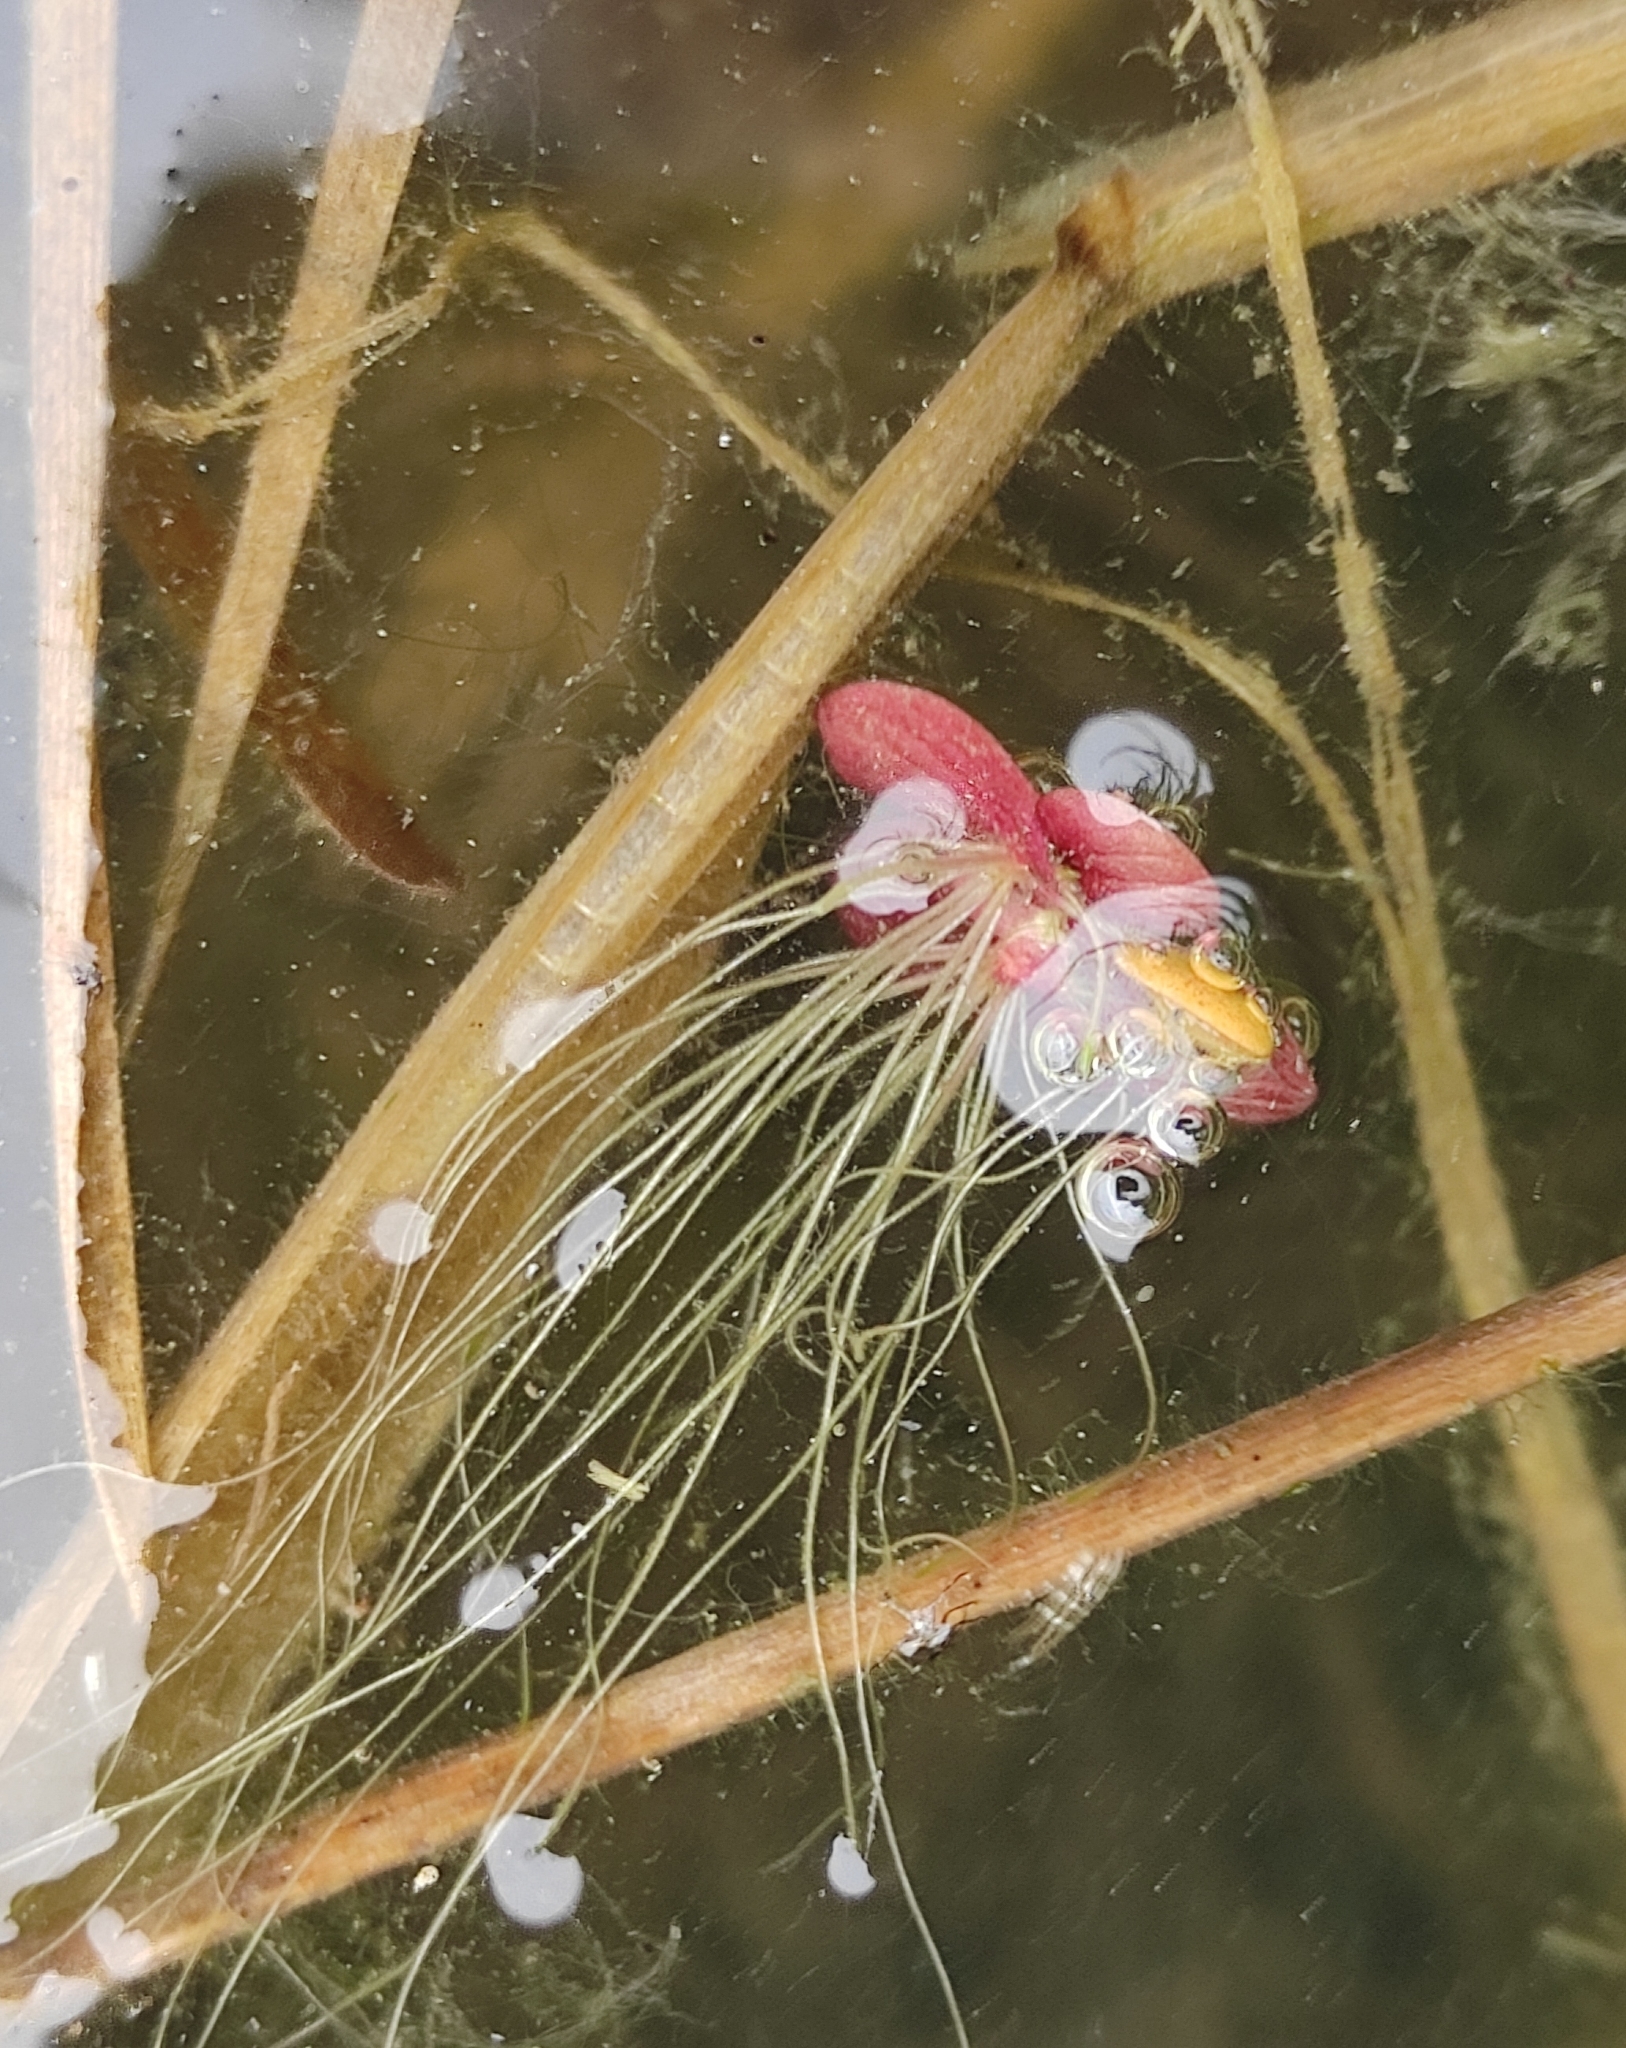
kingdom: Plantae
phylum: Tracheophyta
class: Liliopsida
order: Alismatales
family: Araceae
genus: Spirodela
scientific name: Spirodela polyrhiza
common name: Great duckweed
